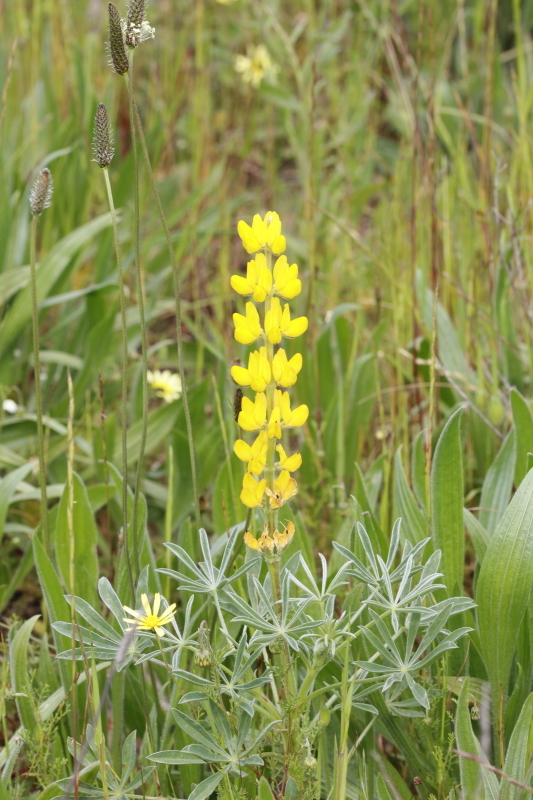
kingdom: Plantae
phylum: Tracheophyta
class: Magnoliopsida
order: Fabales
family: Fabaceae
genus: Lupinus
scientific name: Lupinus luteus
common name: European yellow lupine
